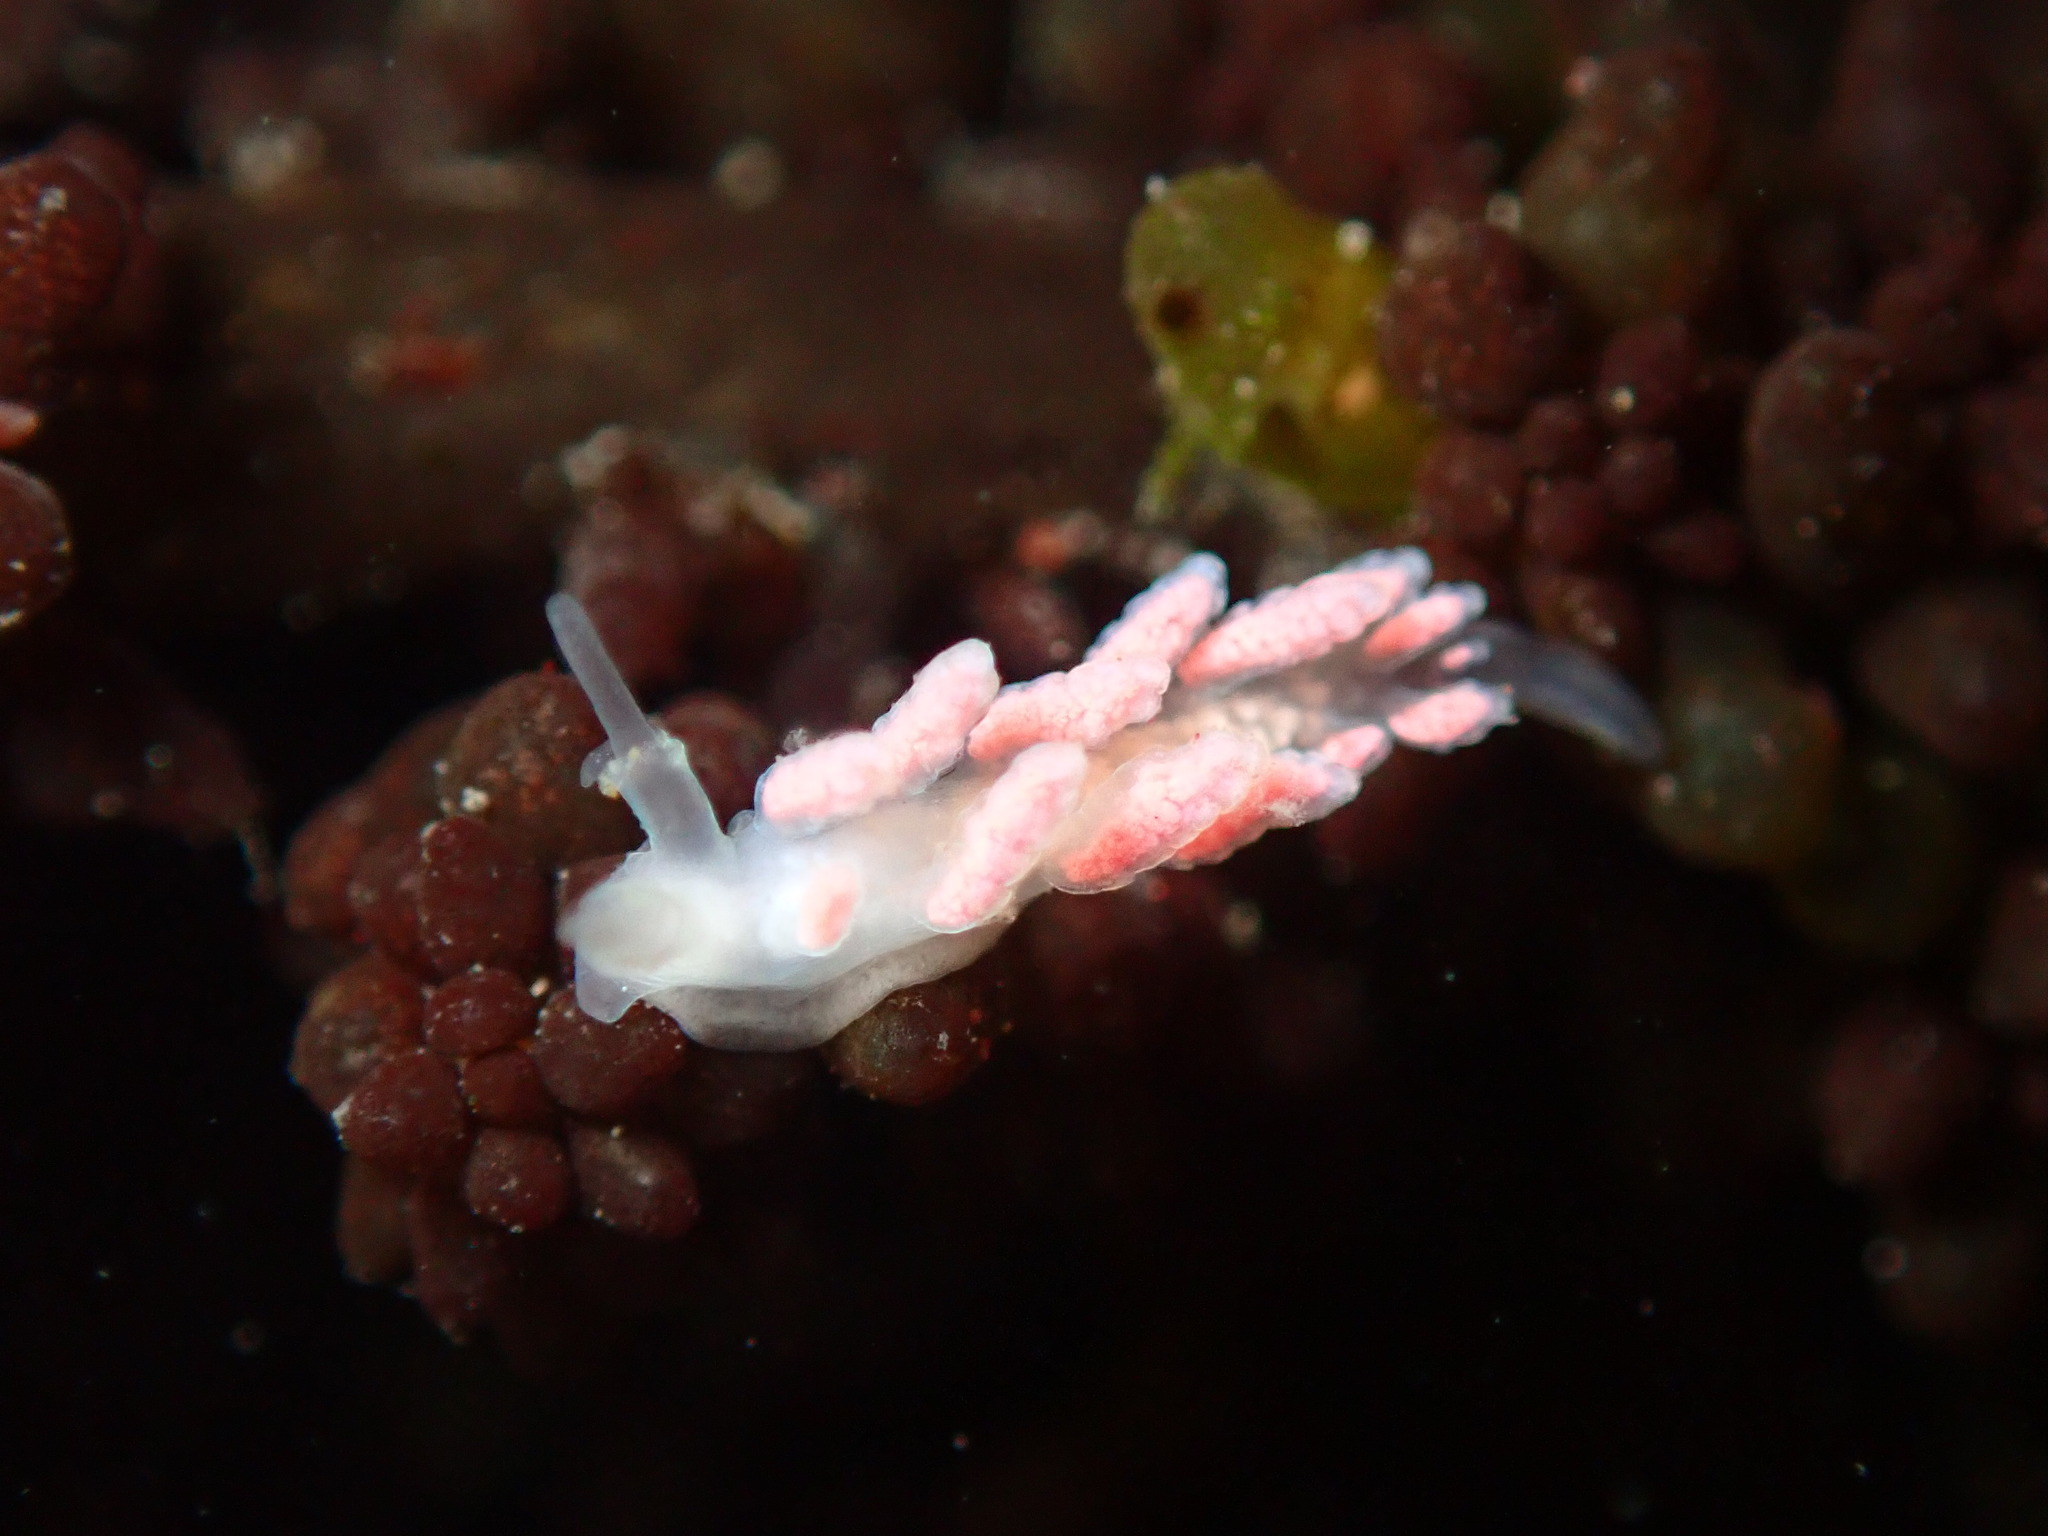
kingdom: Animalia
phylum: Mollusca
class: Gastropoda
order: Nudibranchia
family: Dotidae
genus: Doto
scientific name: Doto amyra
